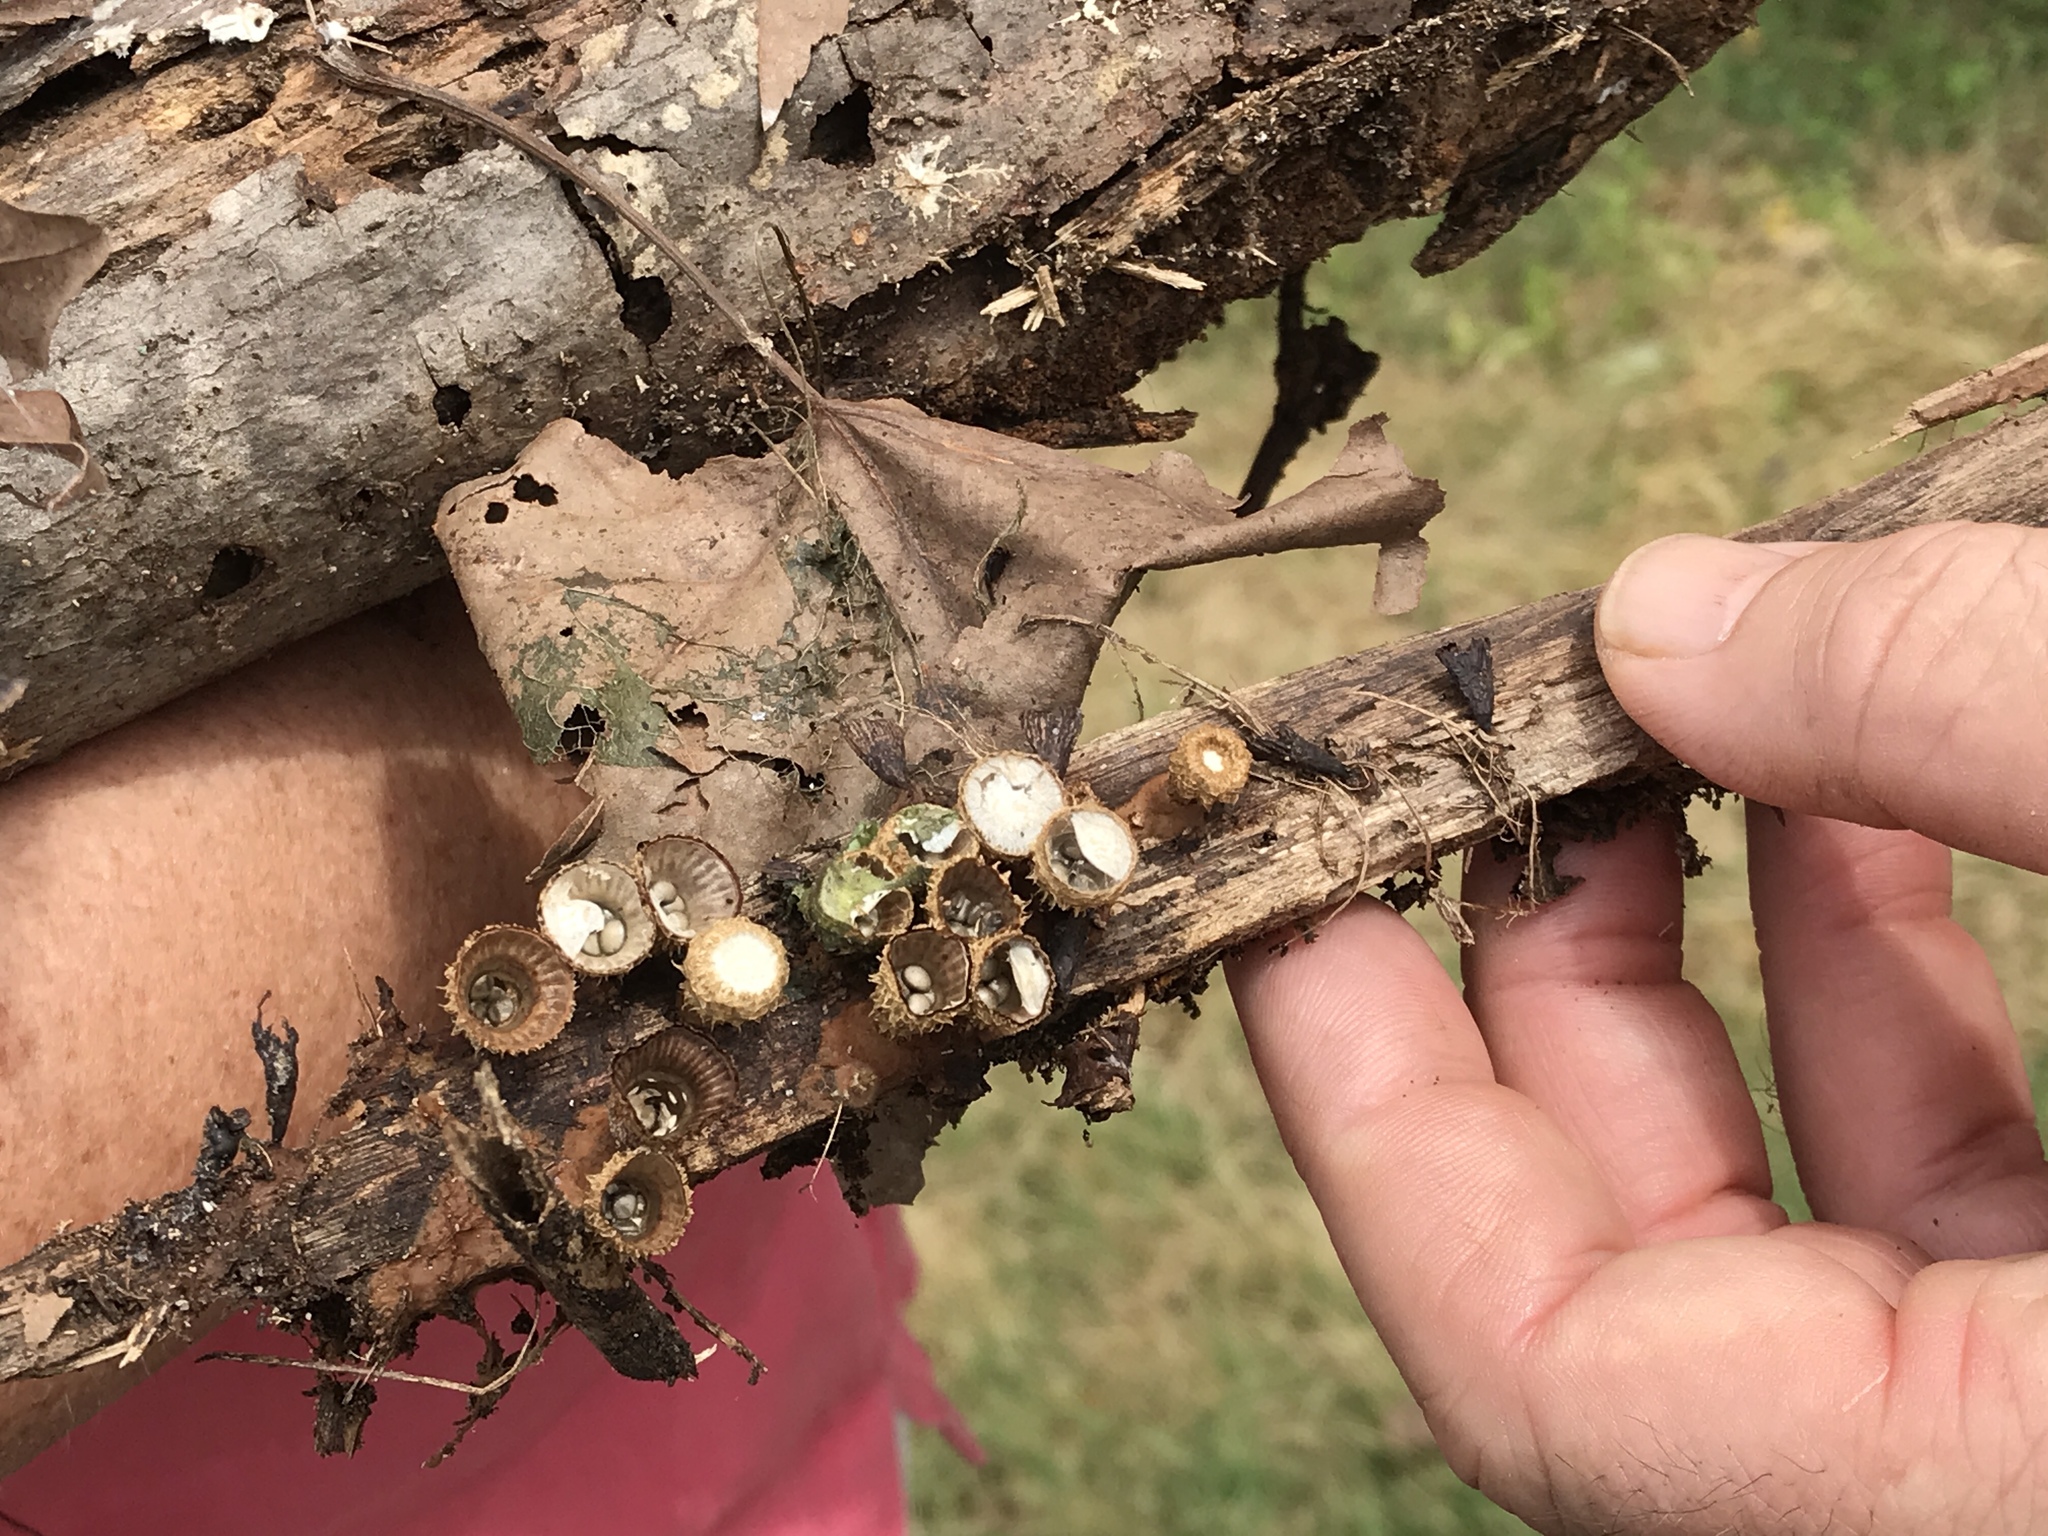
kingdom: Fungi
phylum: Basidiomycota
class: Agaricomycetes
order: Agaricales
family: Agaricaceae
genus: Cyathus
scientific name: Cyathus striatus
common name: Fluted bird's nest
